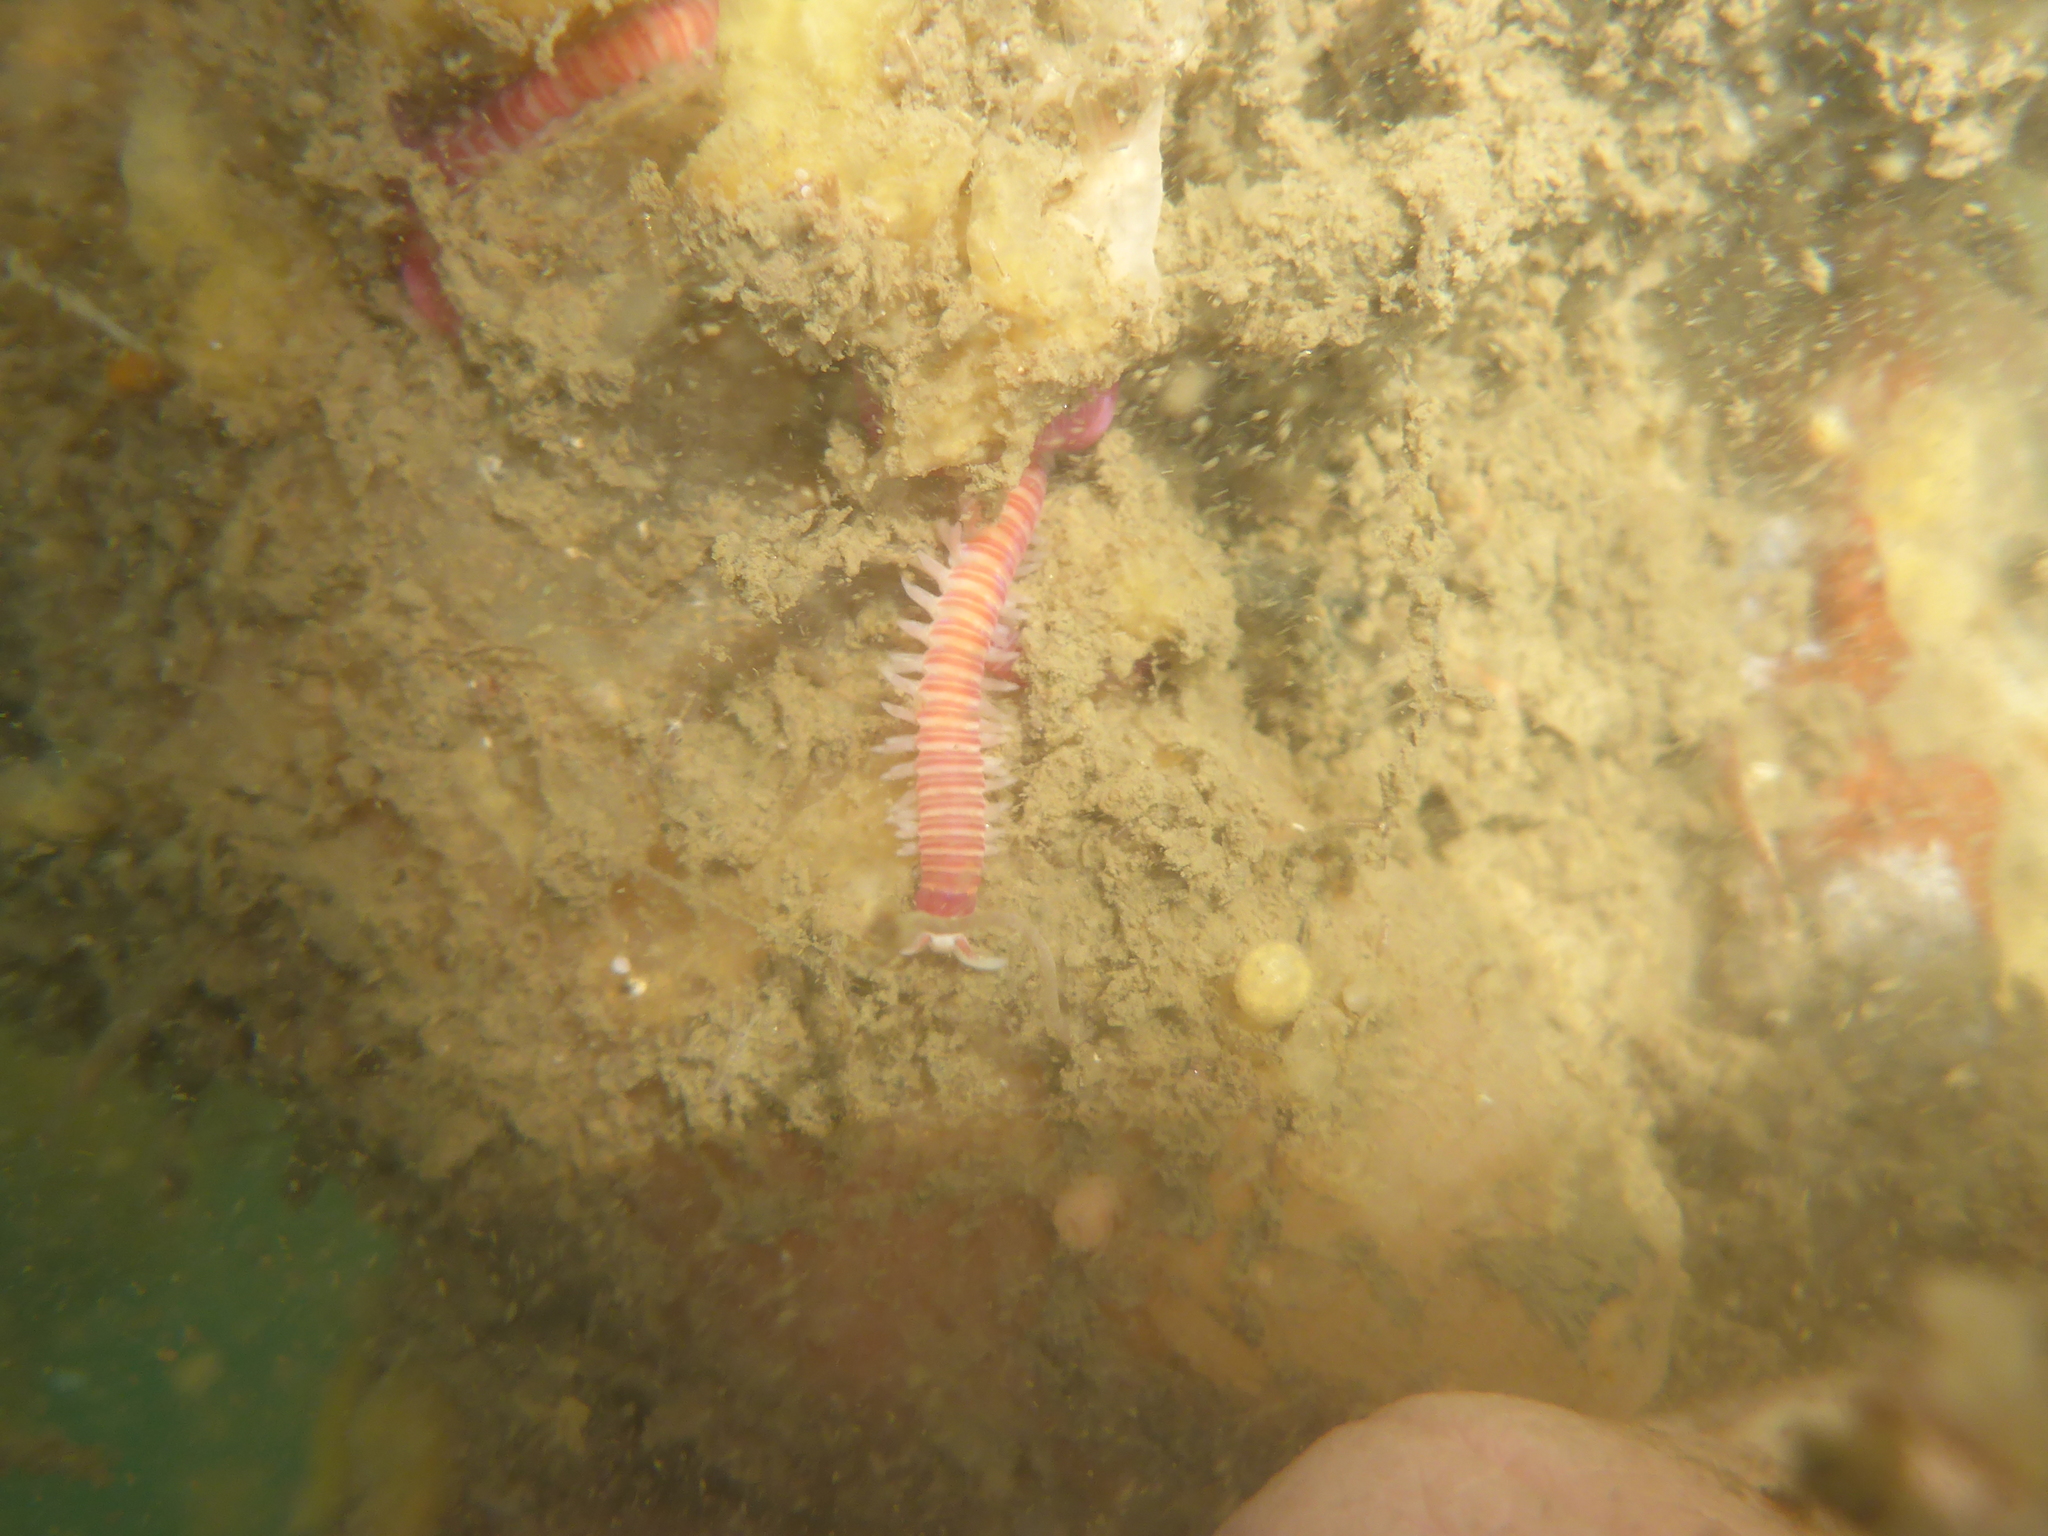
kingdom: Animalia
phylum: Annelida
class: Polychaeta
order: Eunicida
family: Dorvilleidae
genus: Dorvillea
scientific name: Dorvillea moniloceras
